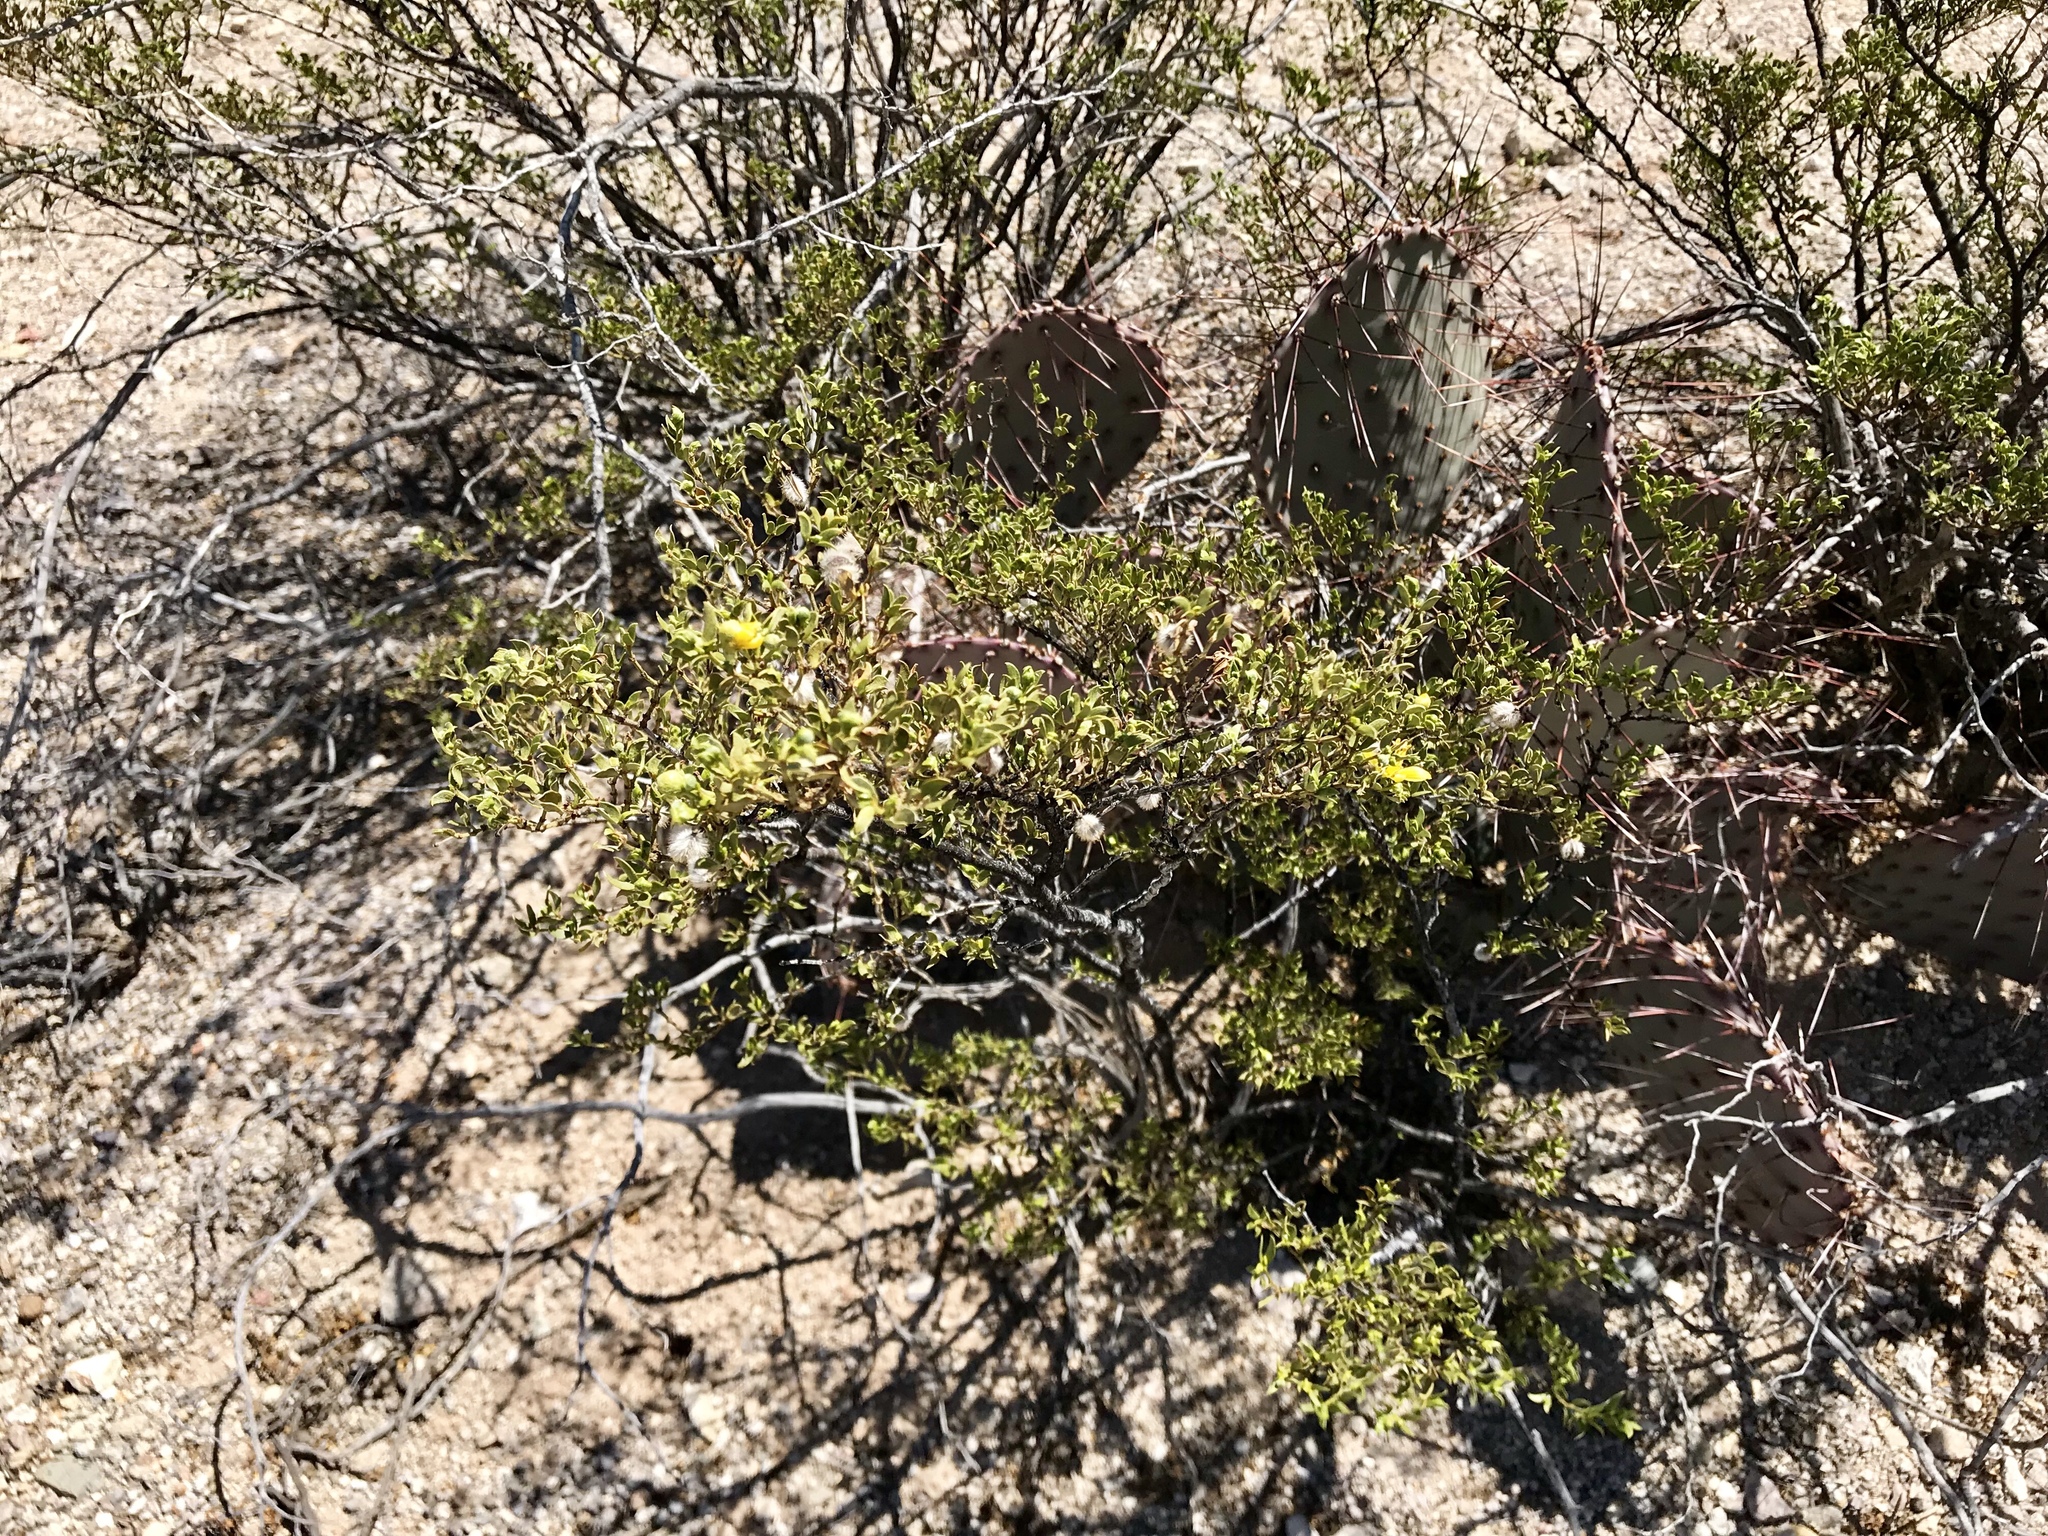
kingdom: Plantae
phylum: Tracheophyta
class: Magnoliopsida
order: Zygophyllales
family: Zygophyllaceae
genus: Larrea
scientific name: Larrea tridentata
